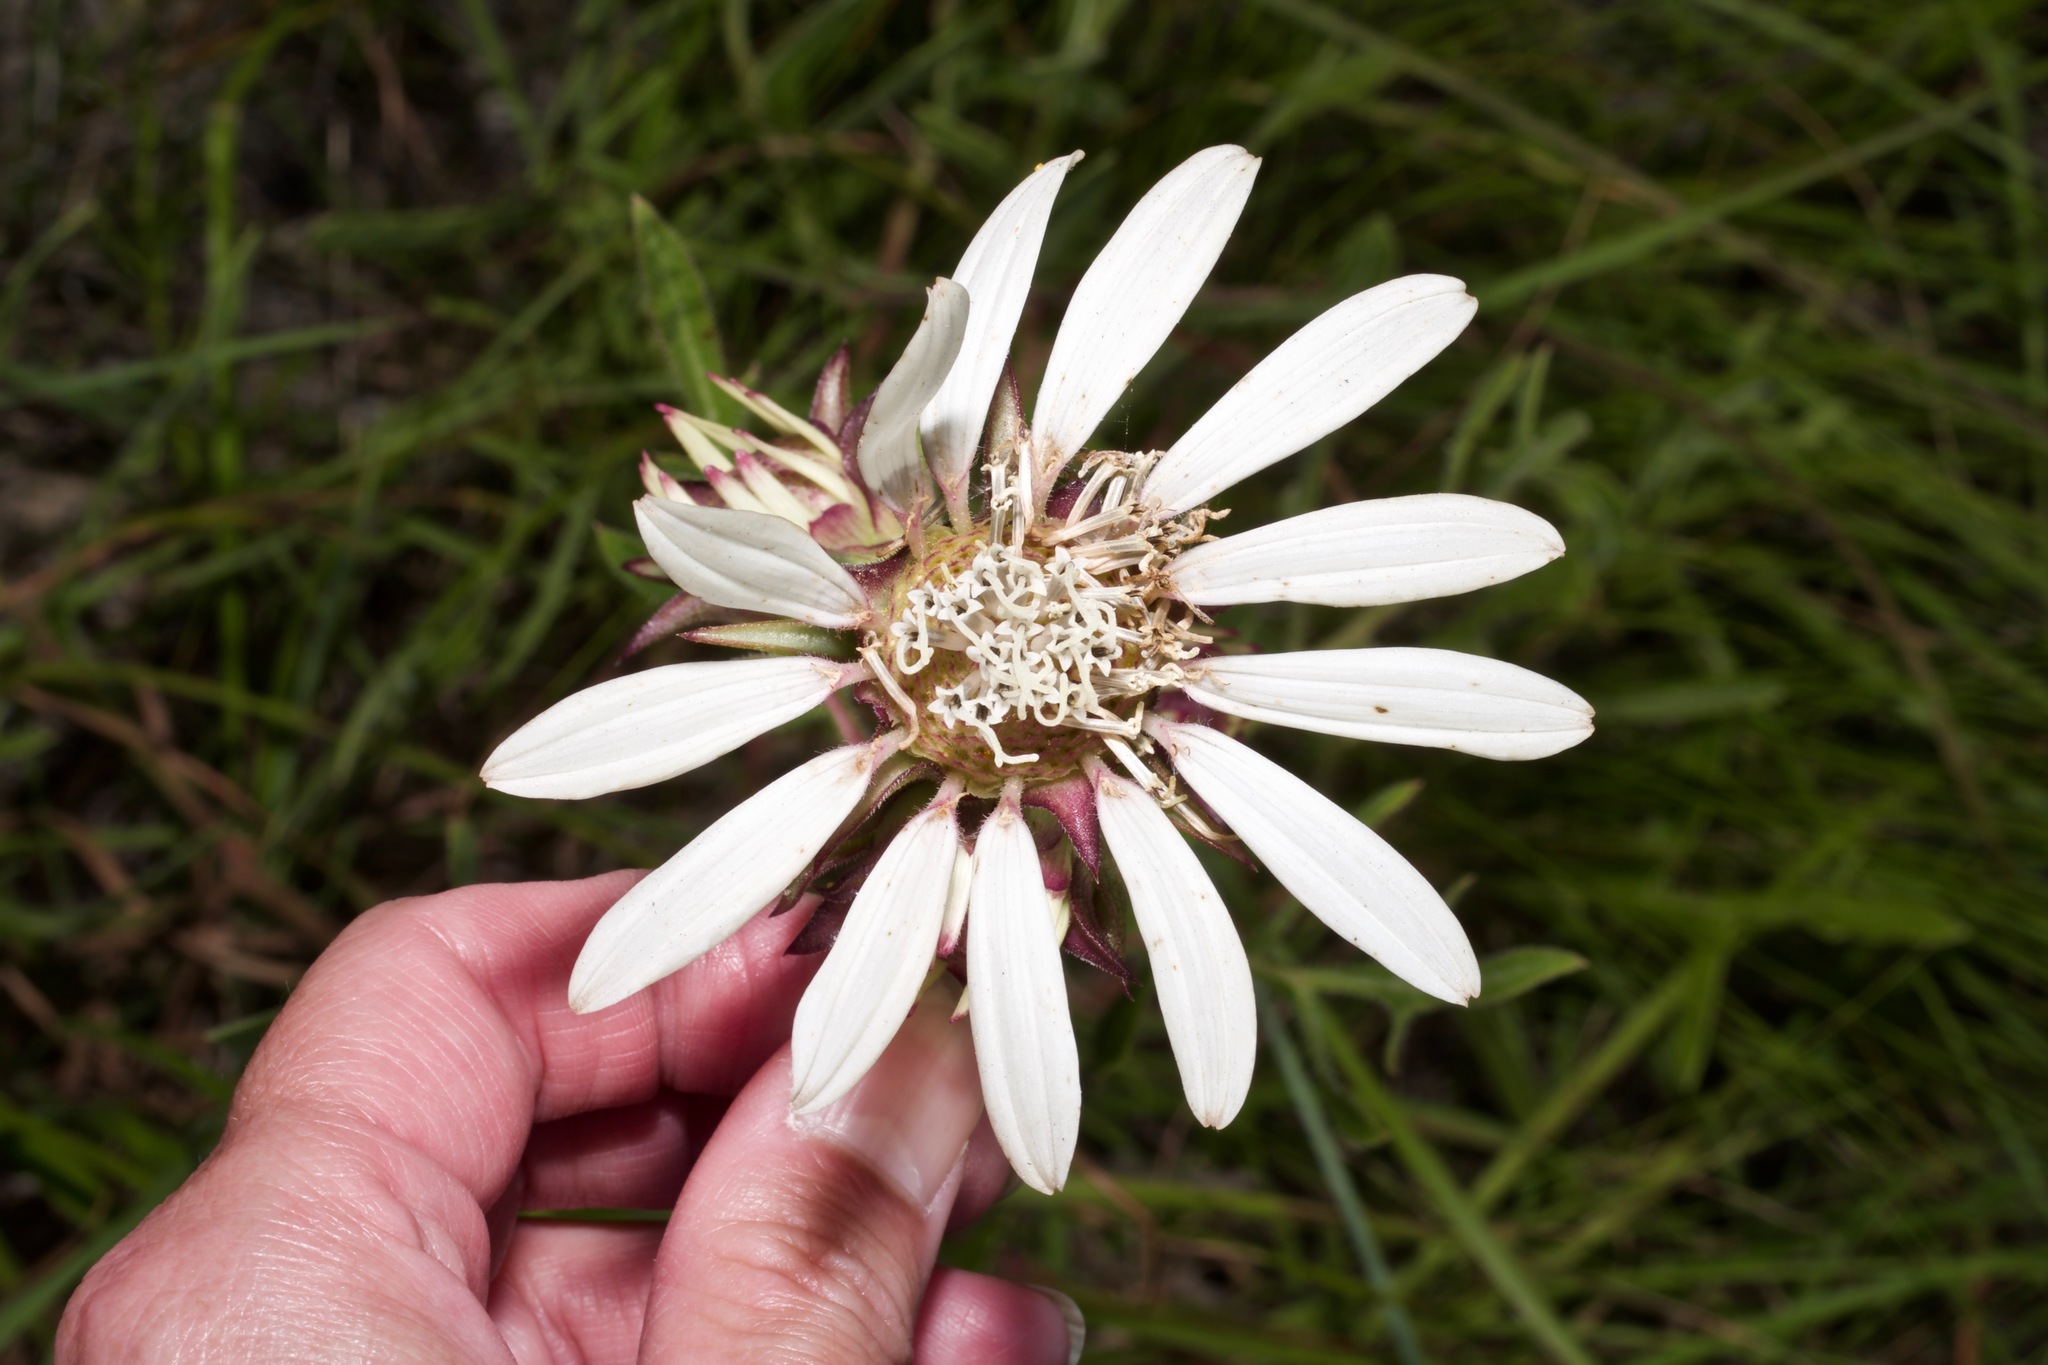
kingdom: Plantae
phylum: Tracheophyta
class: Magnoliopsida
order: Asterales
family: Asteraceae
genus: Silphium
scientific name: Silphium albiflorum
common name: White rosinweed
